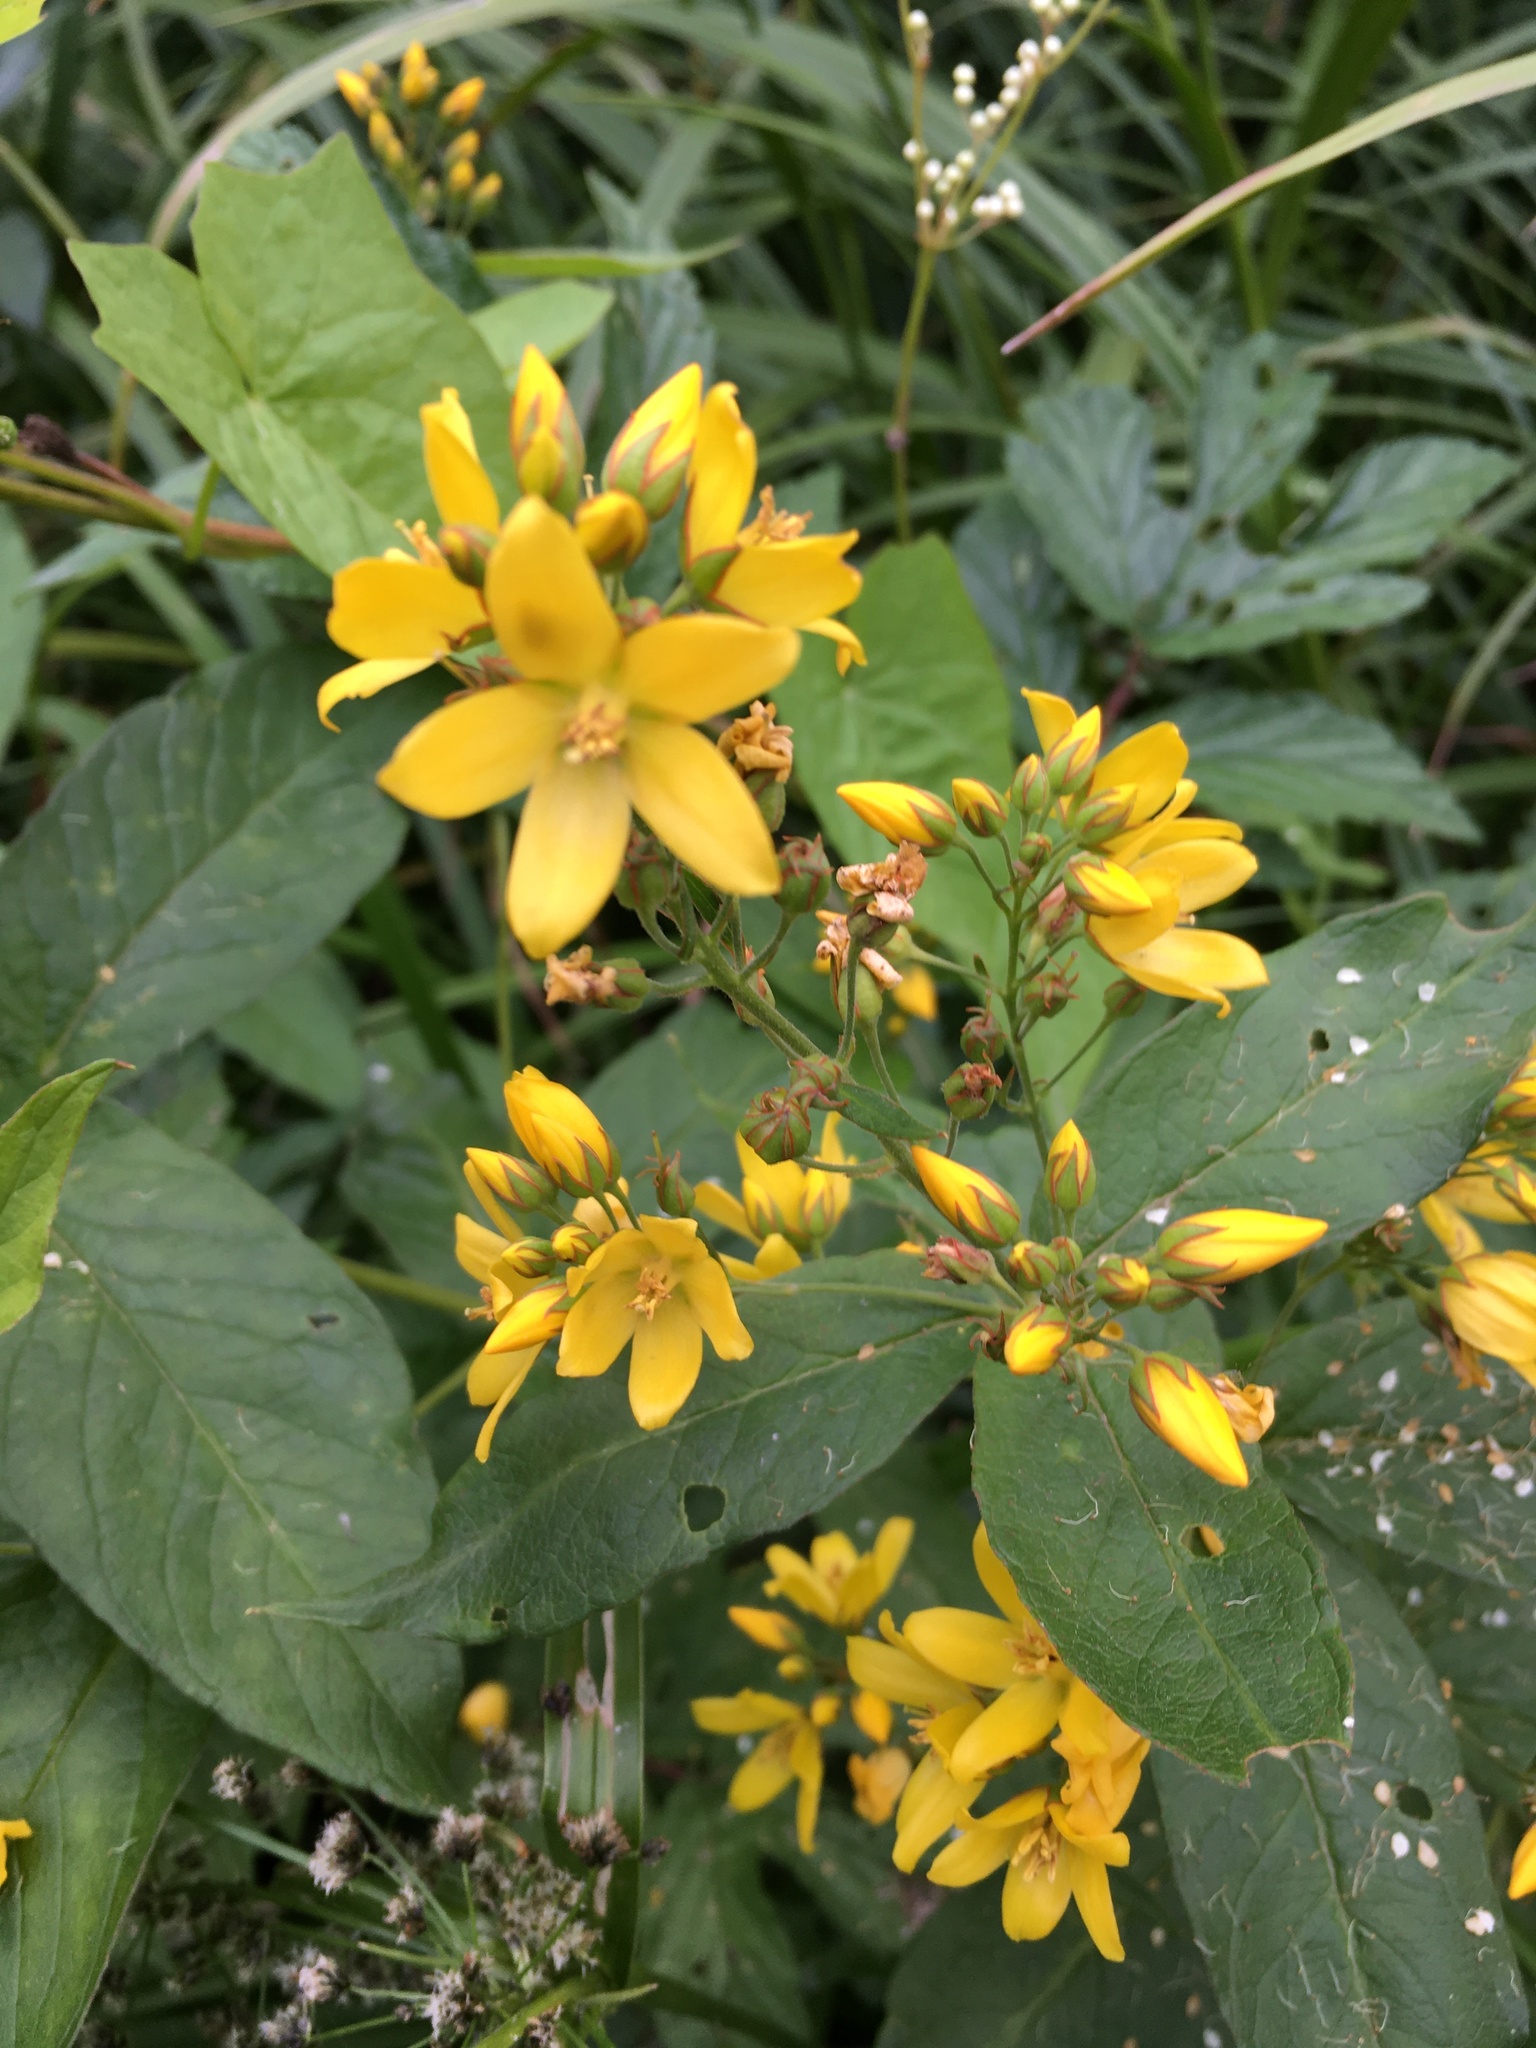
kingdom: Plantae
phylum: Tracheophyta
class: Magnoliopsida
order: Ericales
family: Primulaceae
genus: Lysimachia
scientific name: Lysimachia vulgaris
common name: Yellow loosestrife
